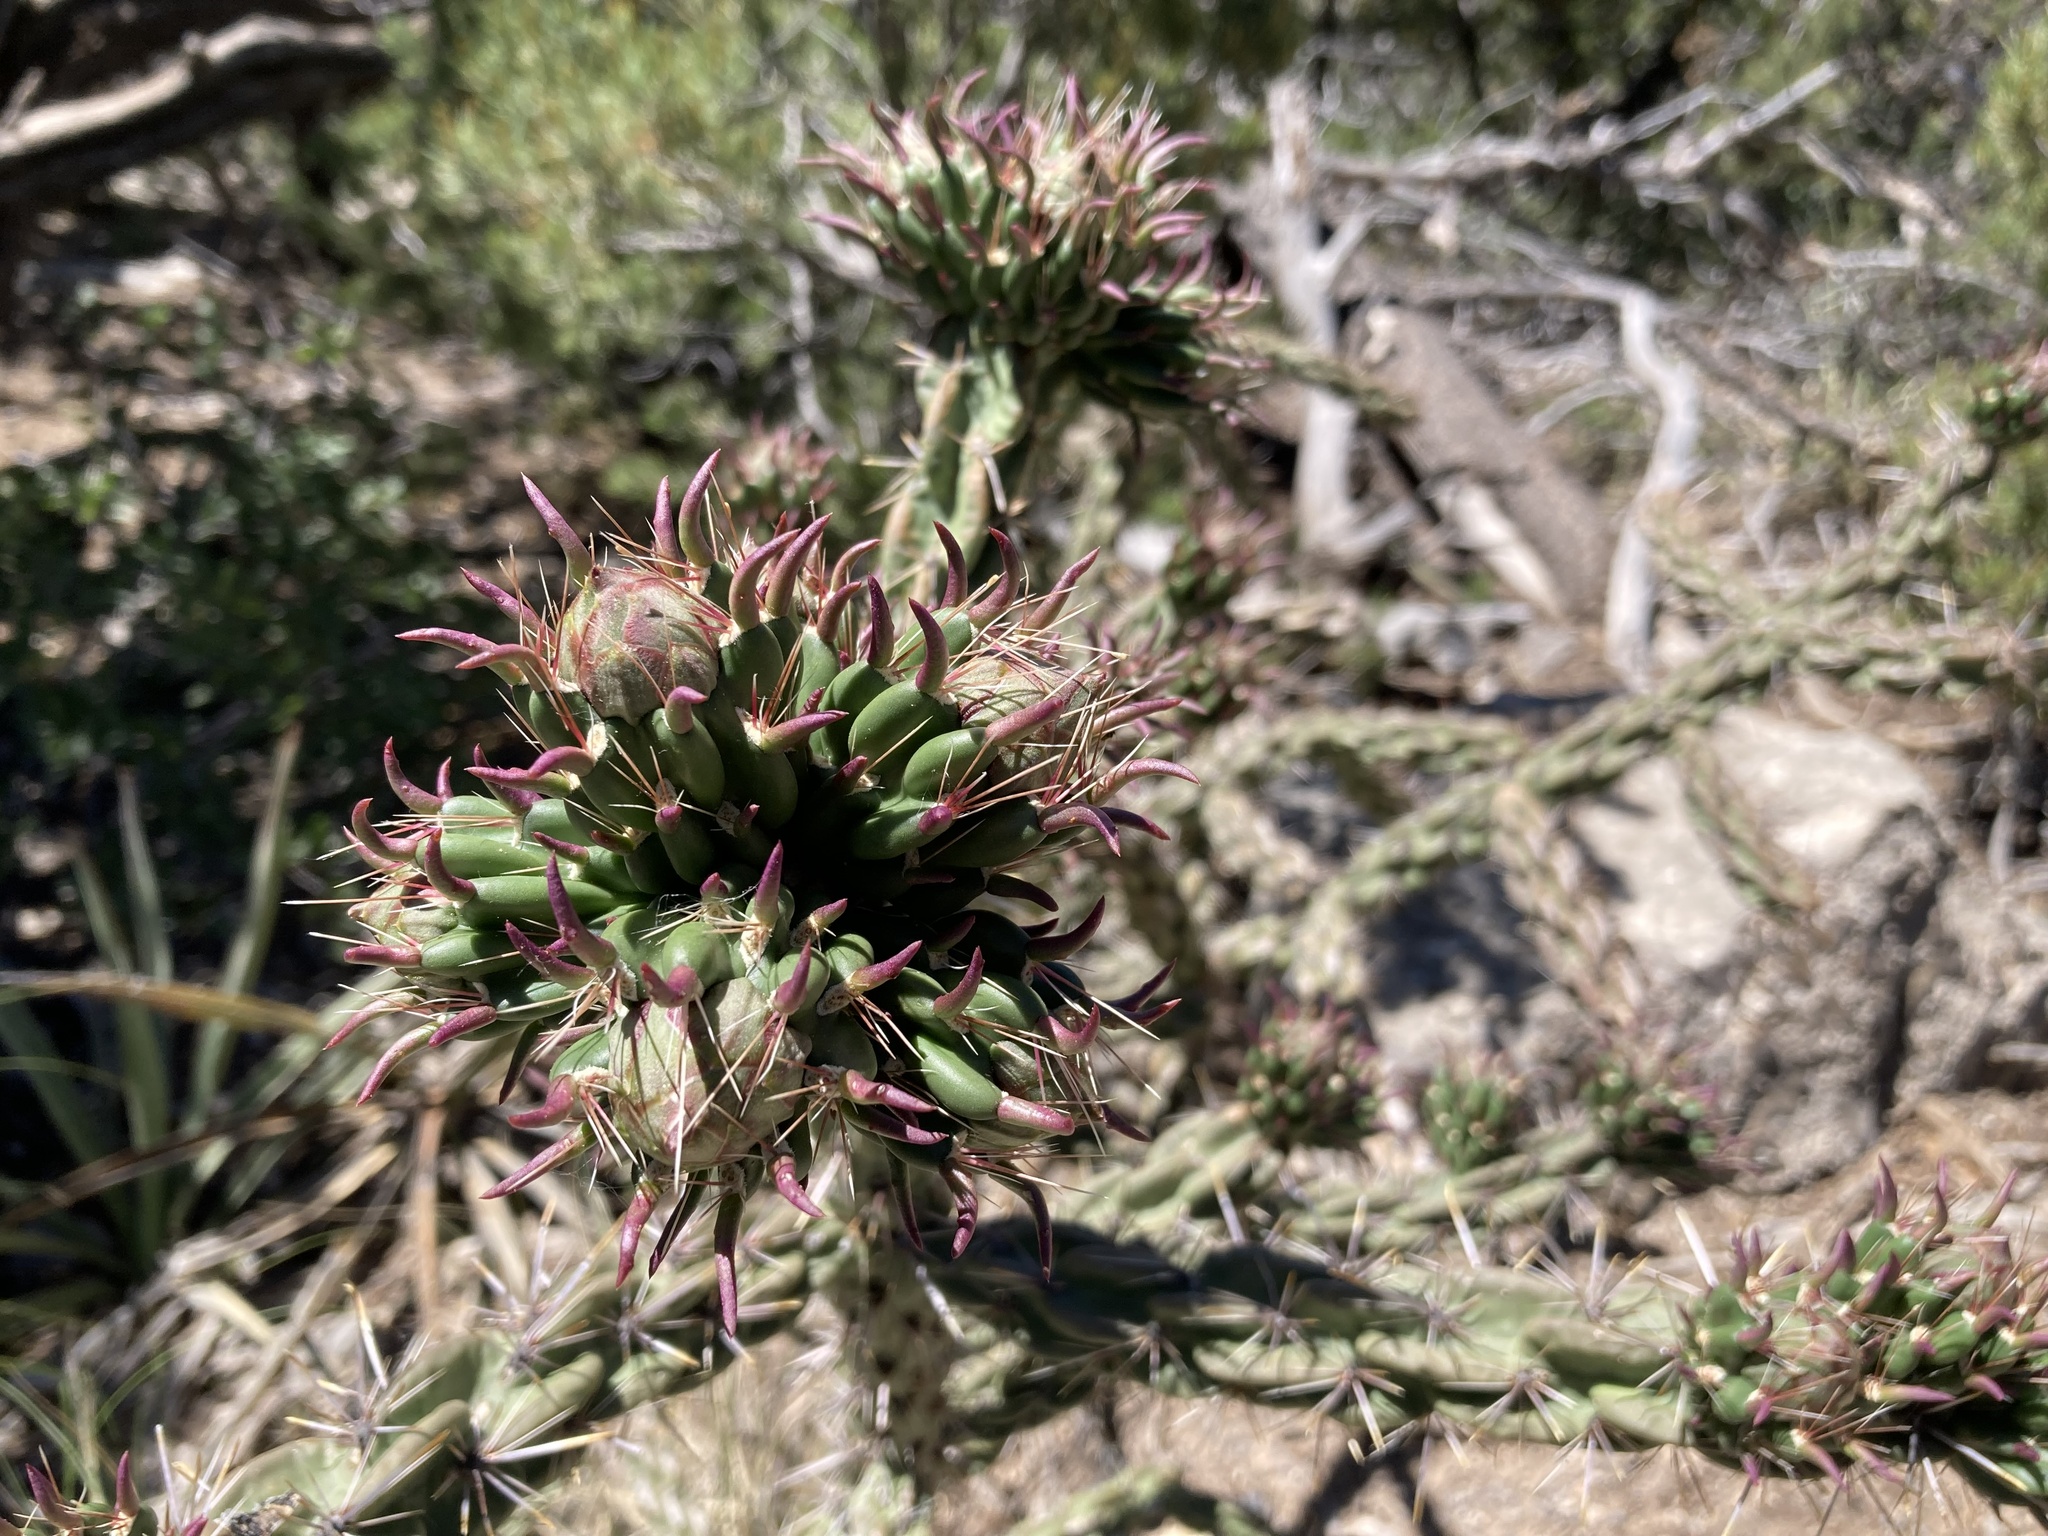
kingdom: Plantae
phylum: Tracheophyta
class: Magnoliopsida
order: Caryophyllales
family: Cactaceae
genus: Cylindropuntia
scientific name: Cylindropuntia imbricata
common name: Candelabrum cactus
